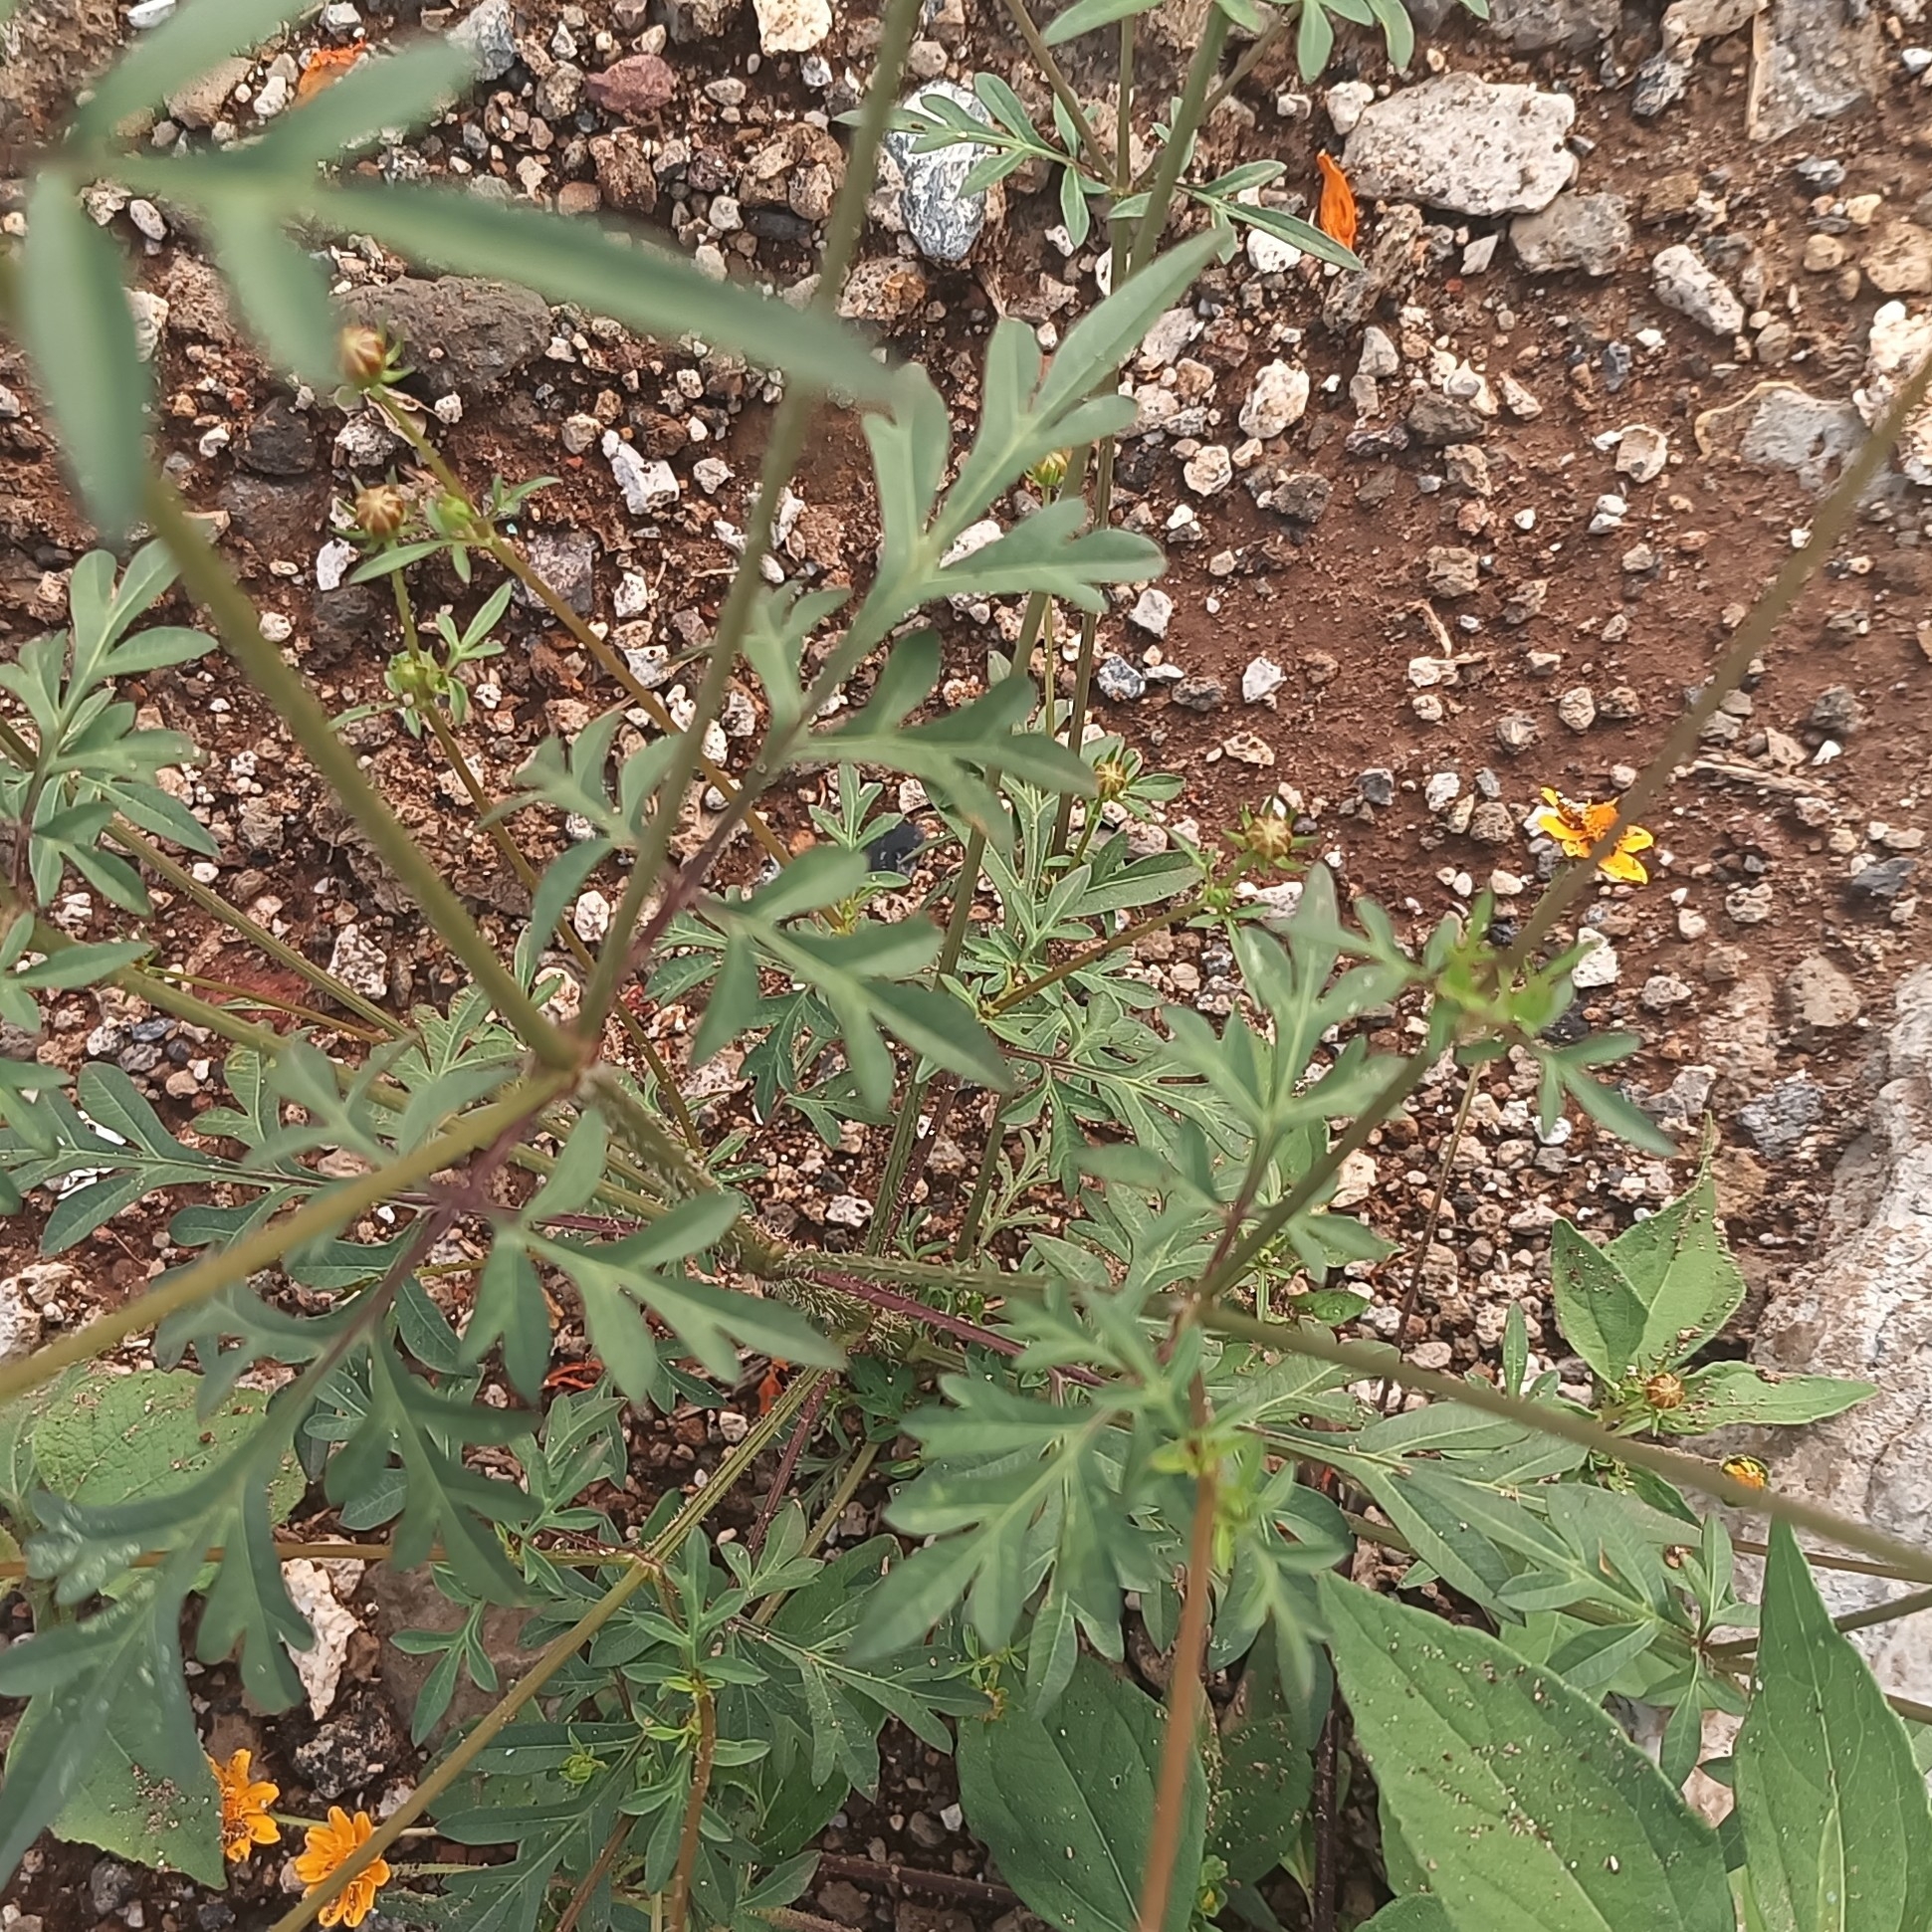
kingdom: Plantae
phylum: Tracheophyta
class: Magnoliopsida
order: Asterales
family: Asteraceae
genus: Cosmos
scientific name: Cosmos sulphureus
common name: Sulphur cosmos
